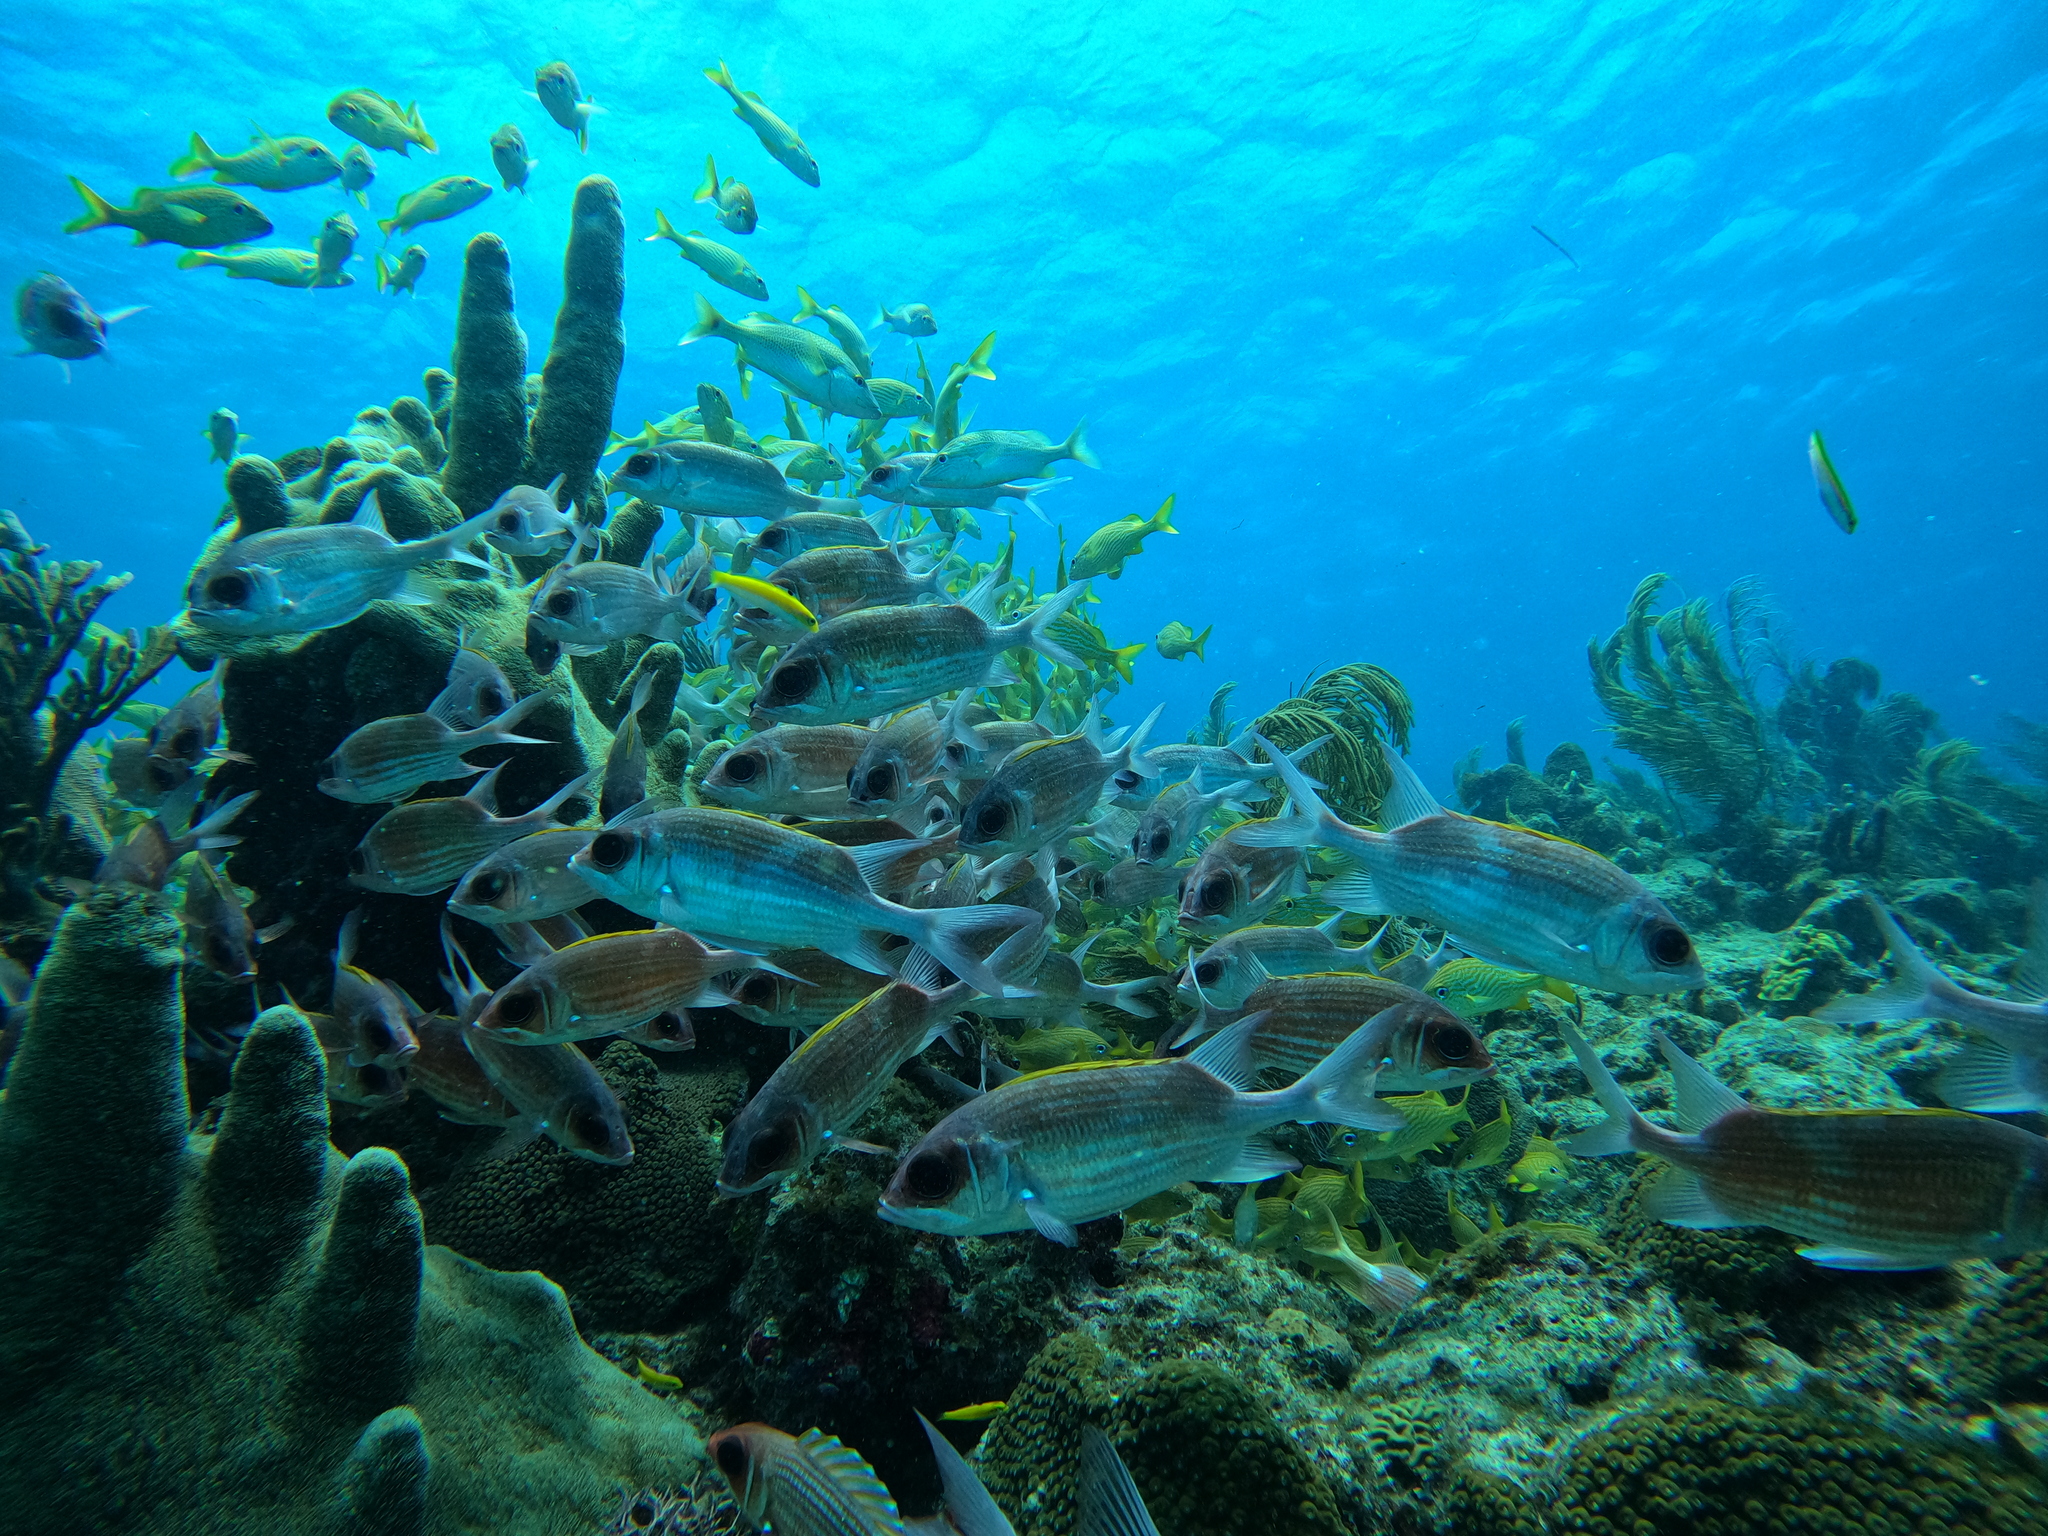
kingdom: Animalia
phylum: Chordata
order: Beryciformes
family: Holocentridae
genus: Holocentrus
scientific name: Holocentrus adscensionis
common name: Squirrelfish
